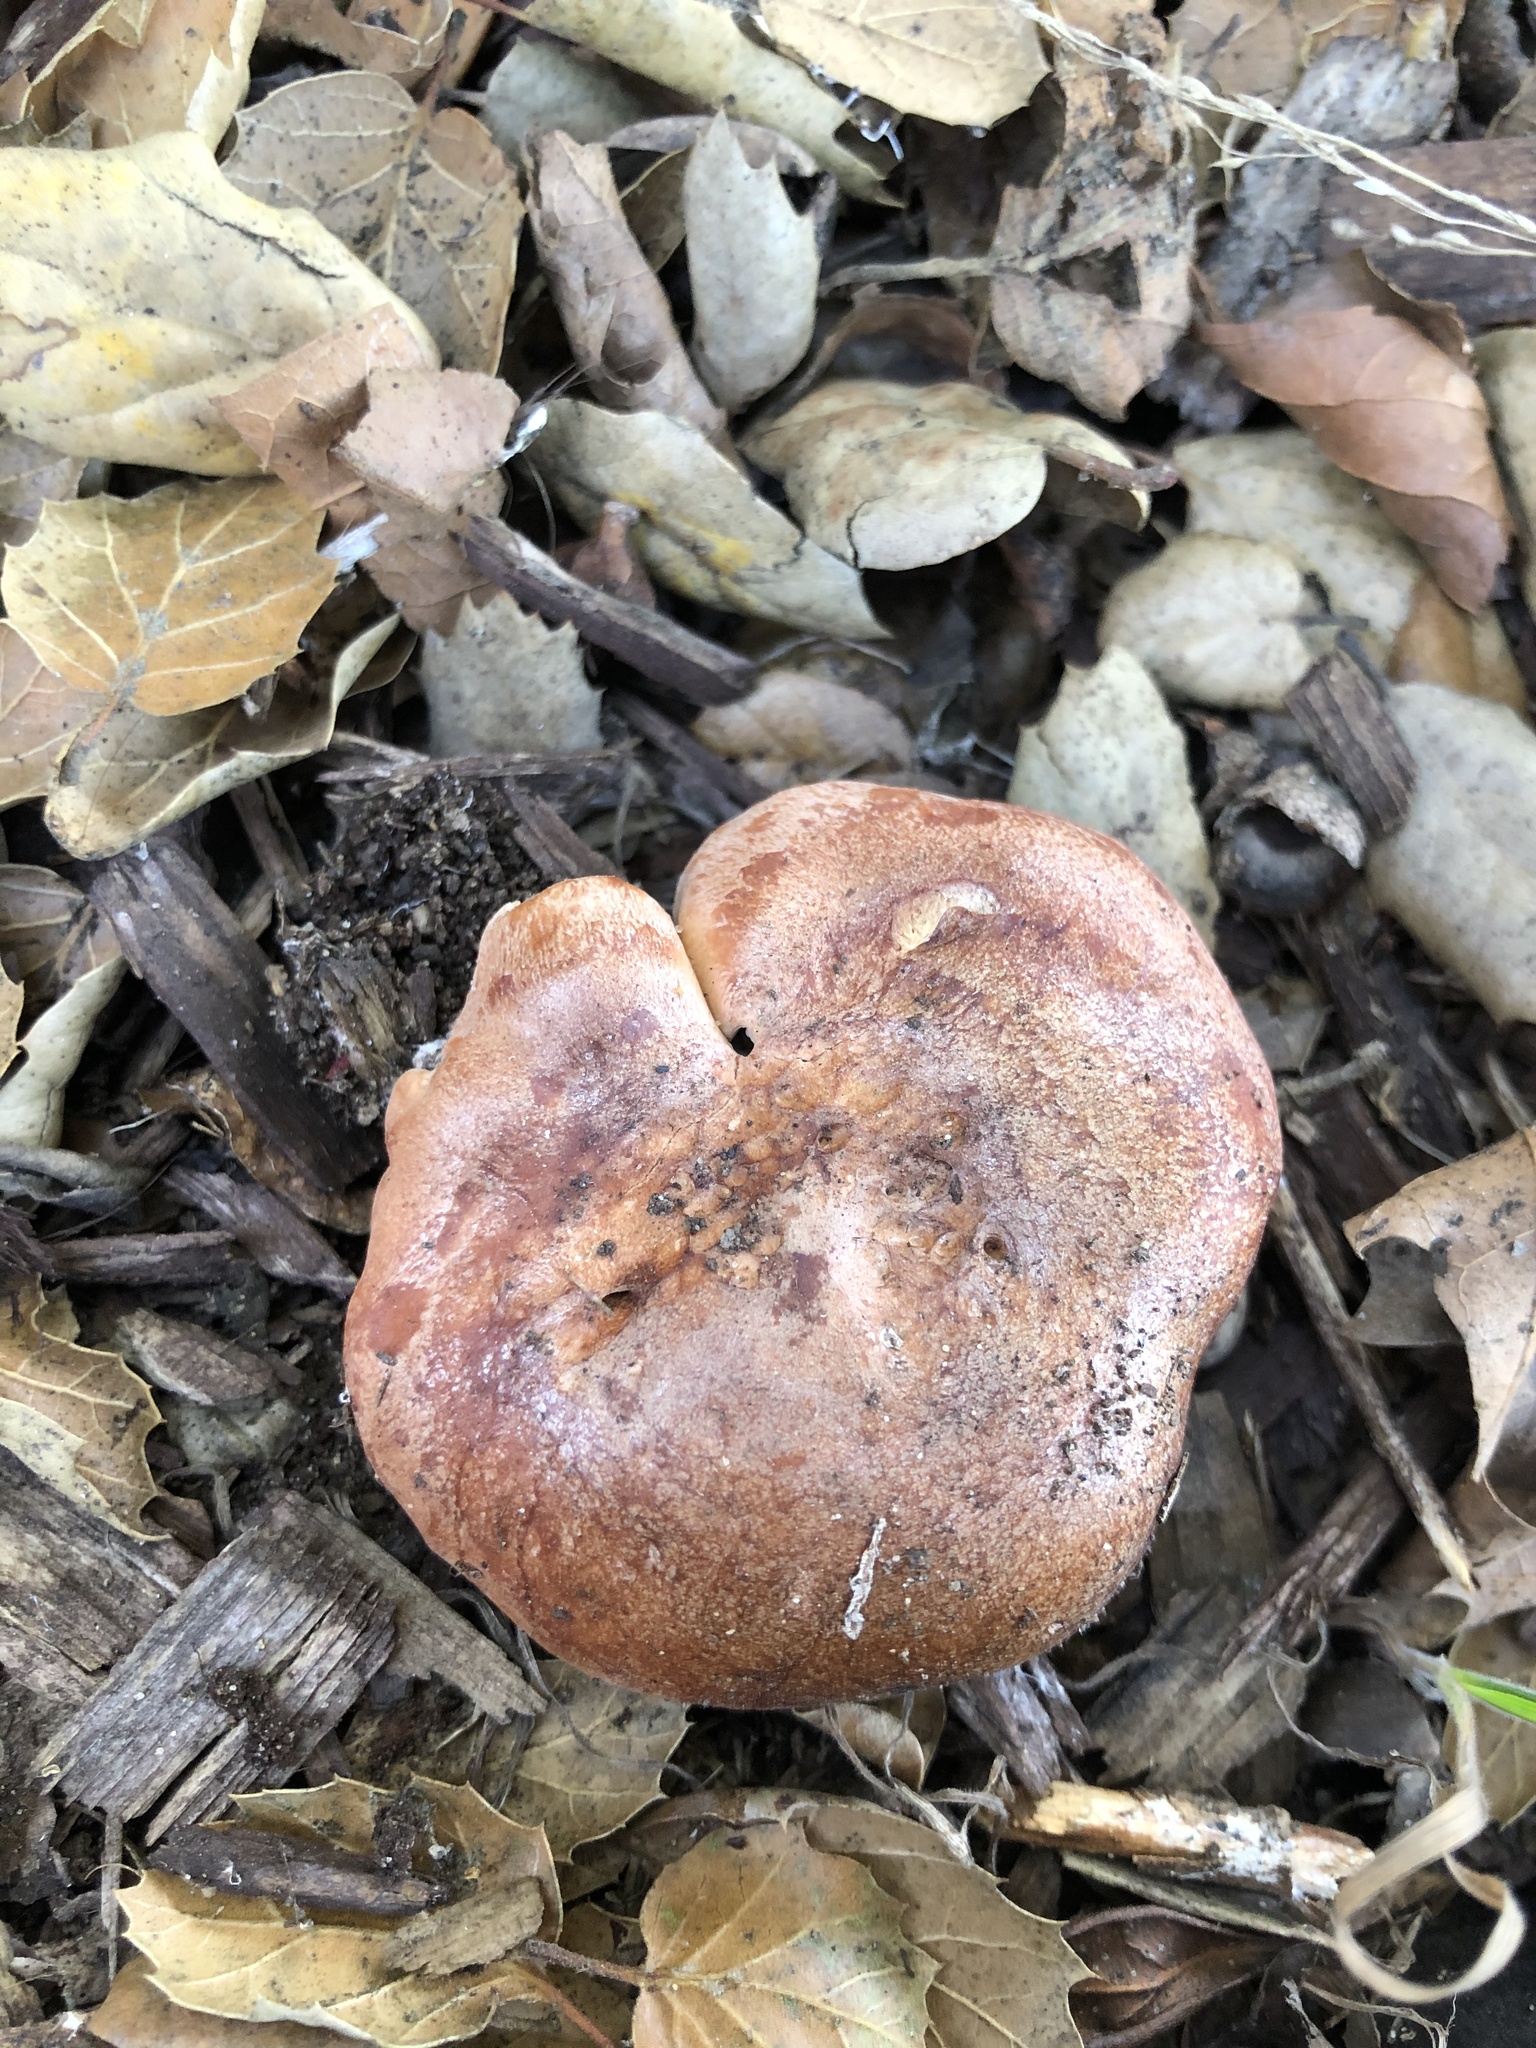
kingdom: Fungi
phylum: Basidiomycota
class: Agaricomycetes
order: Russulales
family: Russulaceae
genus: Lactarius
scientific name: Lactarius xanthogalactus
